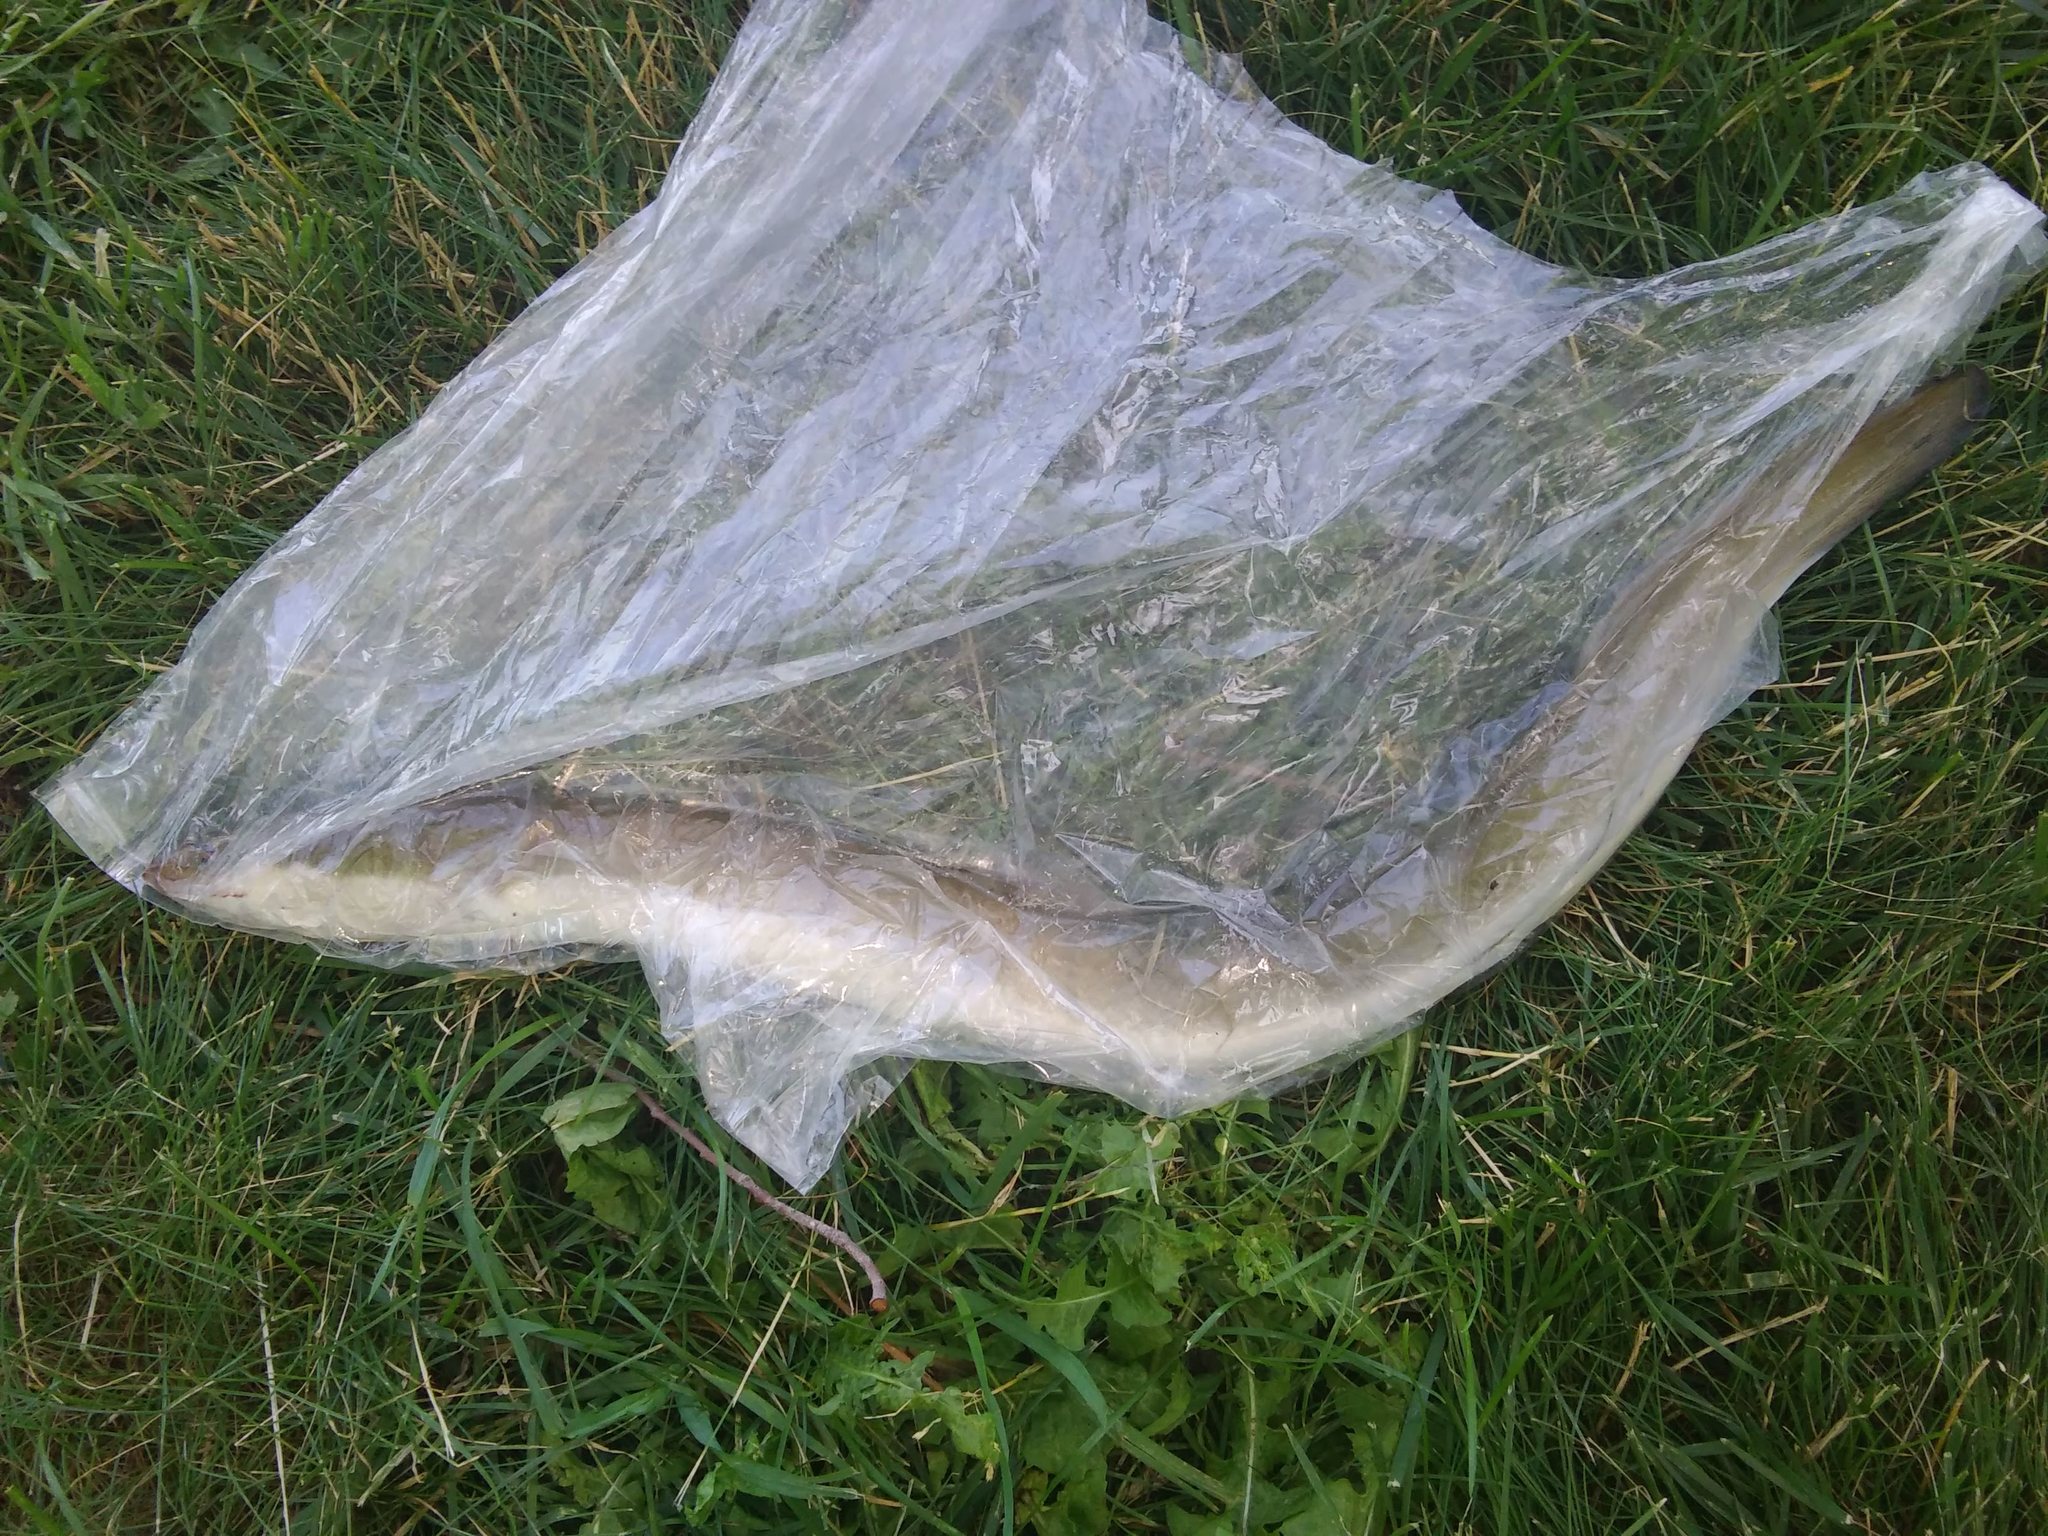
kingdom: Animalia
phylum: Chordata
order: Anguilliformes
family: Anguillidae
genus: Anguilla
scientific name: Anguilla rostrata
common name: American eel
